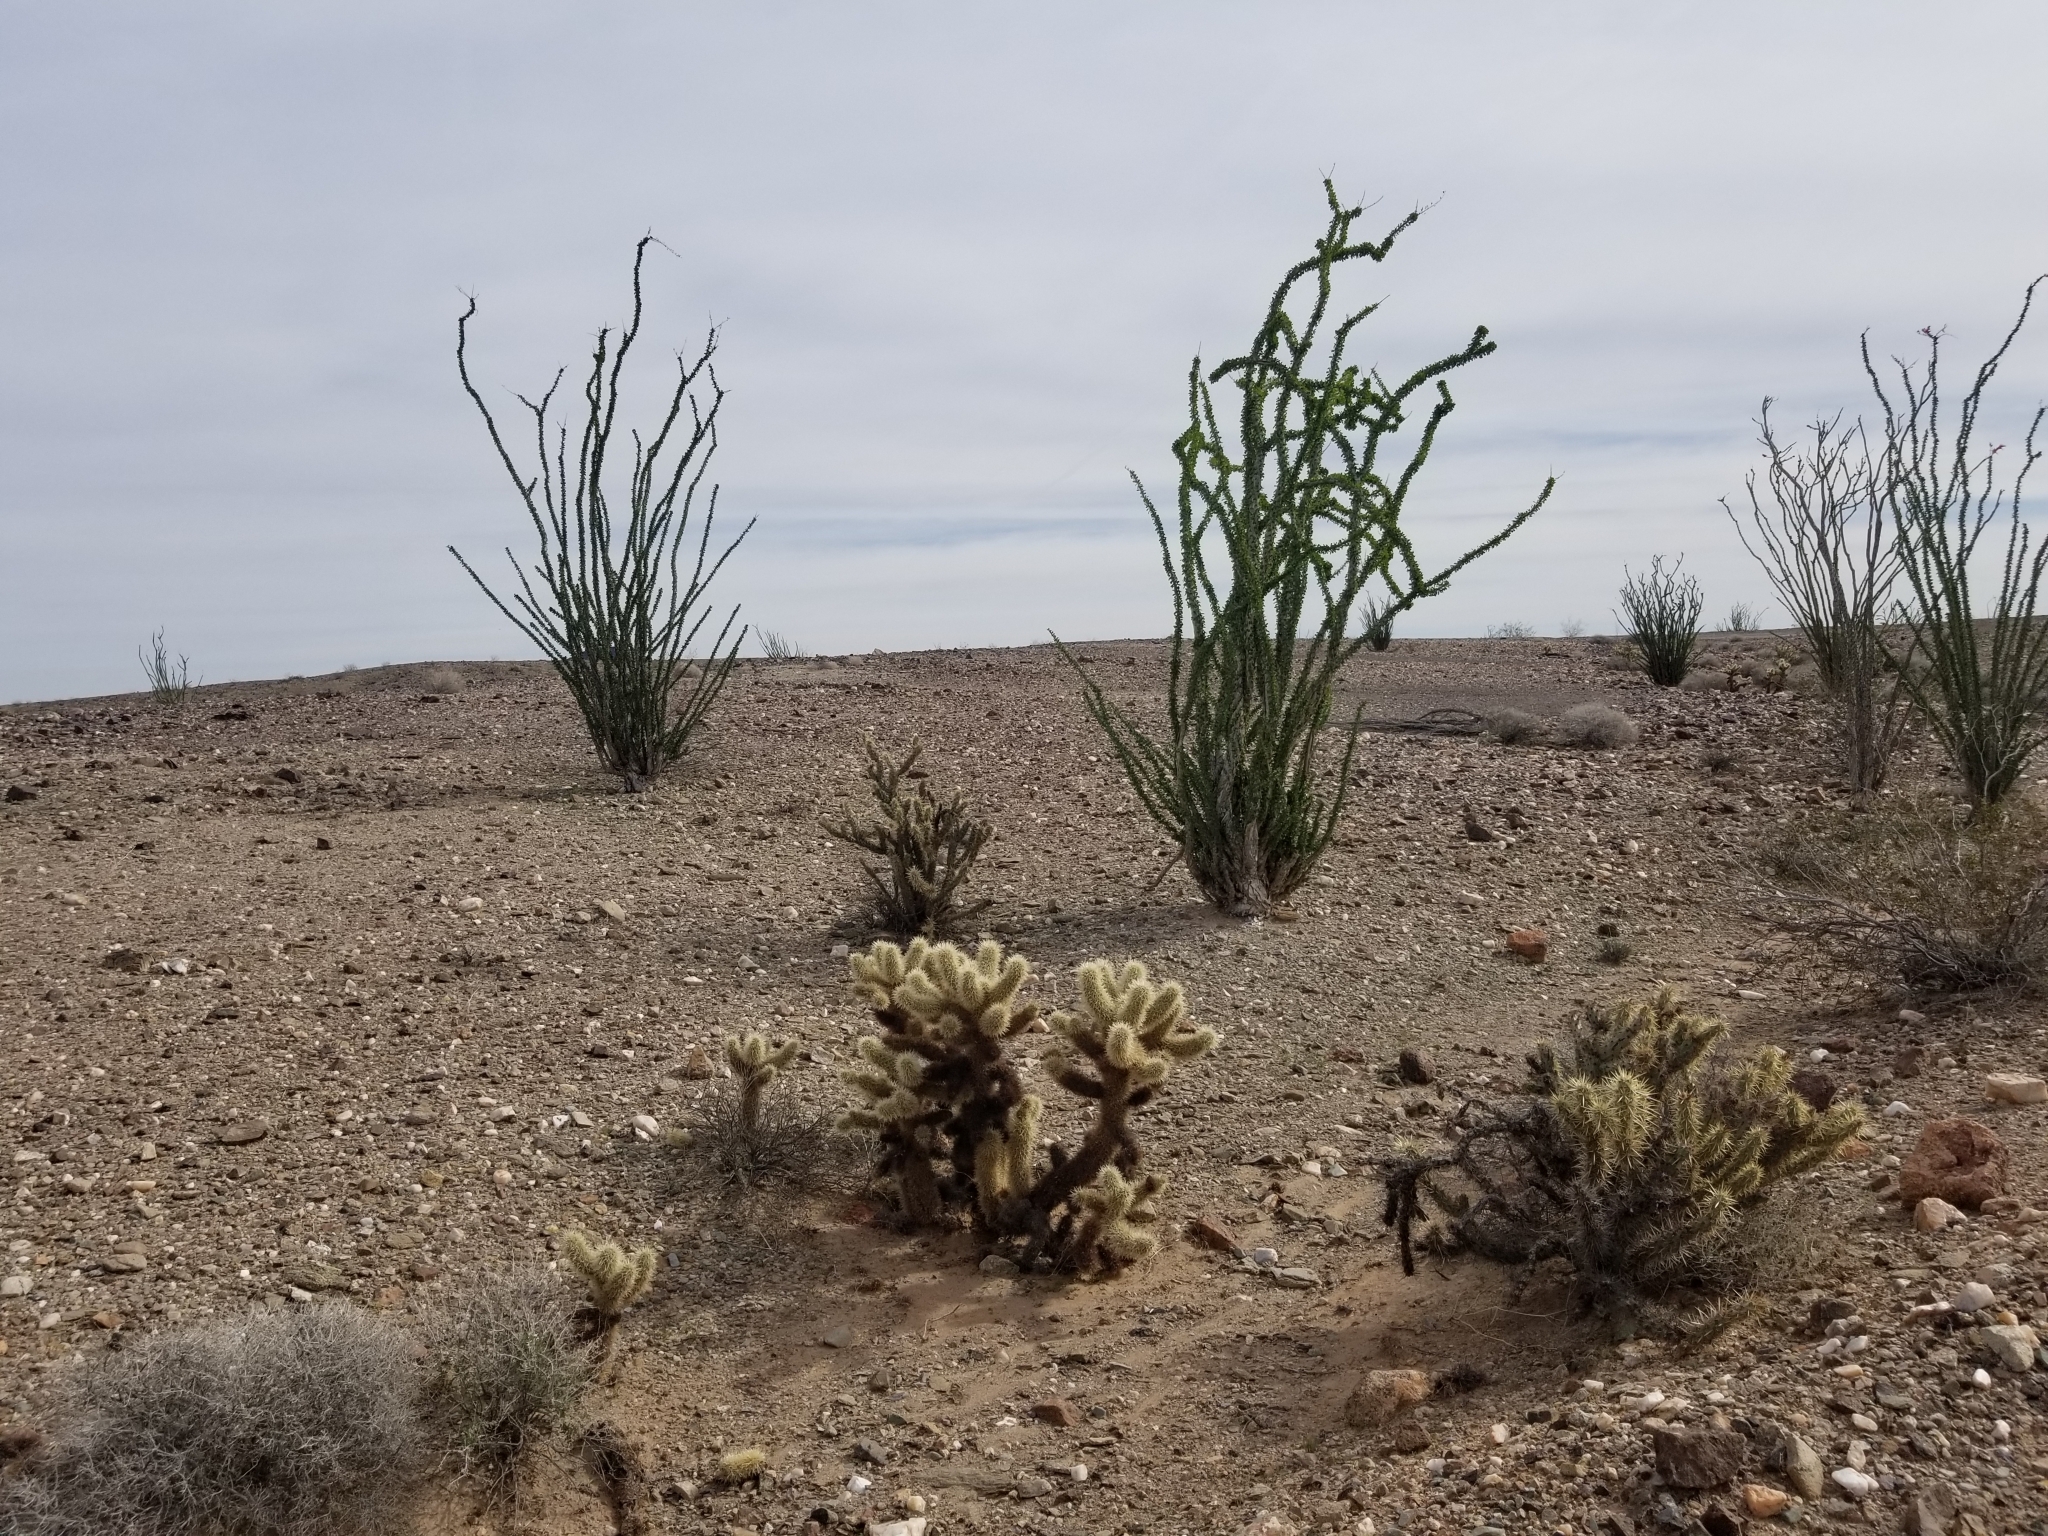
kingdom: Plantae
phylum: Tracheophyta
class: Magnoliopsida
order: Caryophyllales
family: Cactaceae
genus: Cylindropuntia
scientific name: Cylindropuntia acanthocarpa
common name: Buckhorn cholla
